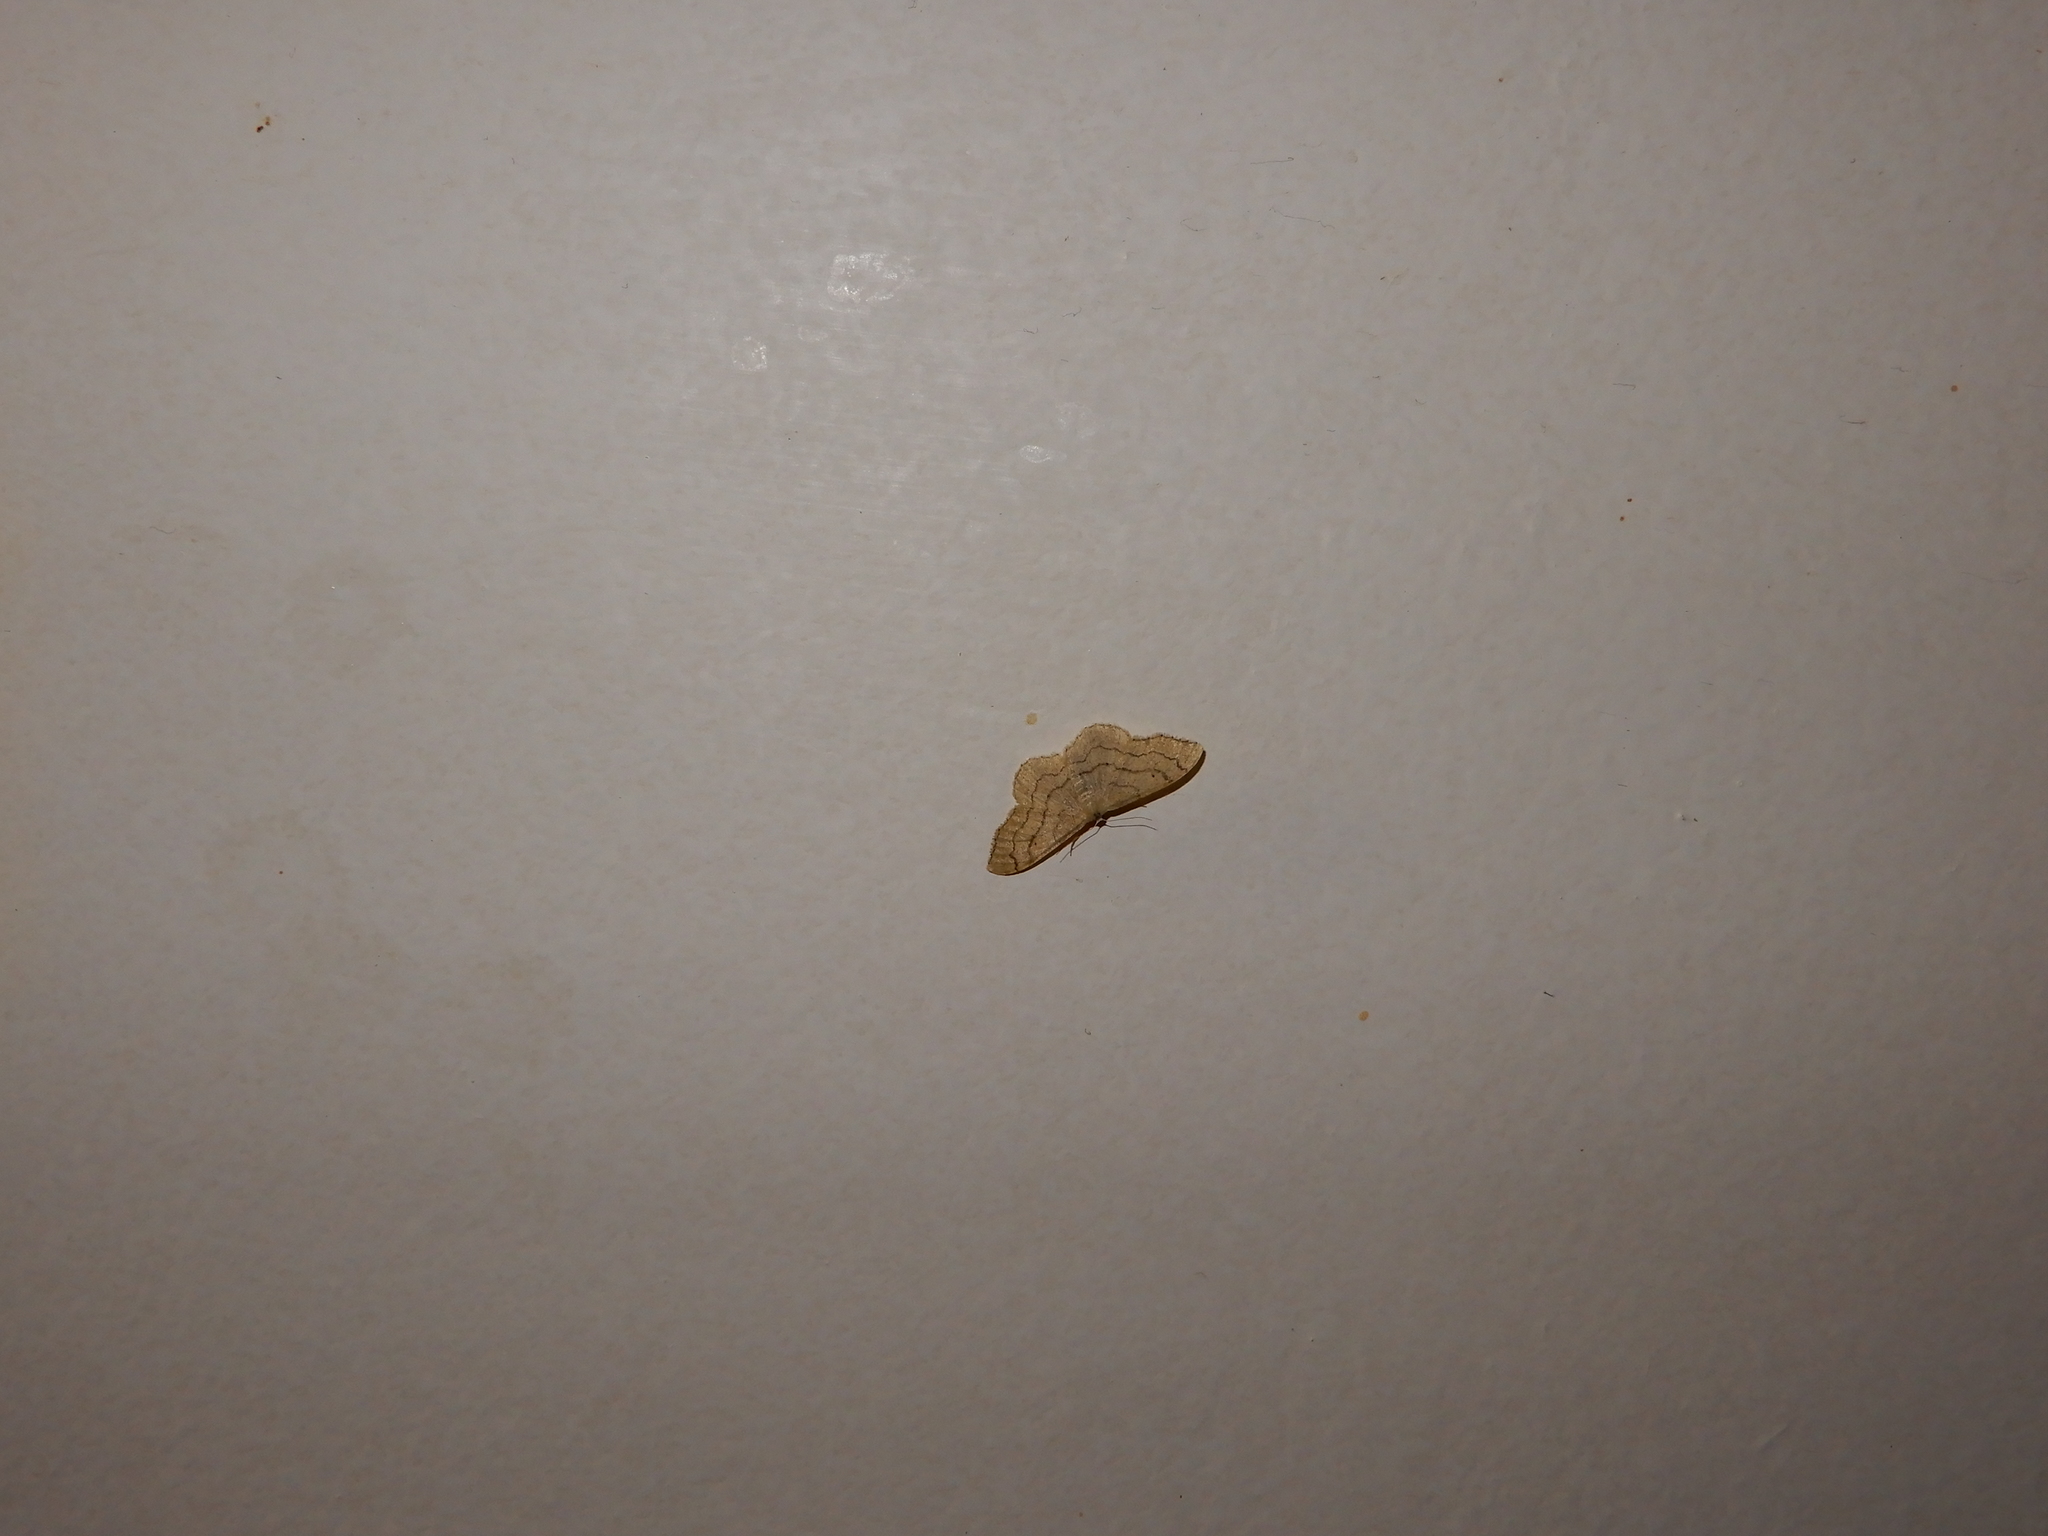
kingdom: Animalia
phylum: Arthropoda
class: Insecta
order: Lepidoptera
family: Geometridae
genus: Idaea
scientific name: Idaea aversata
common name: Riband wave
